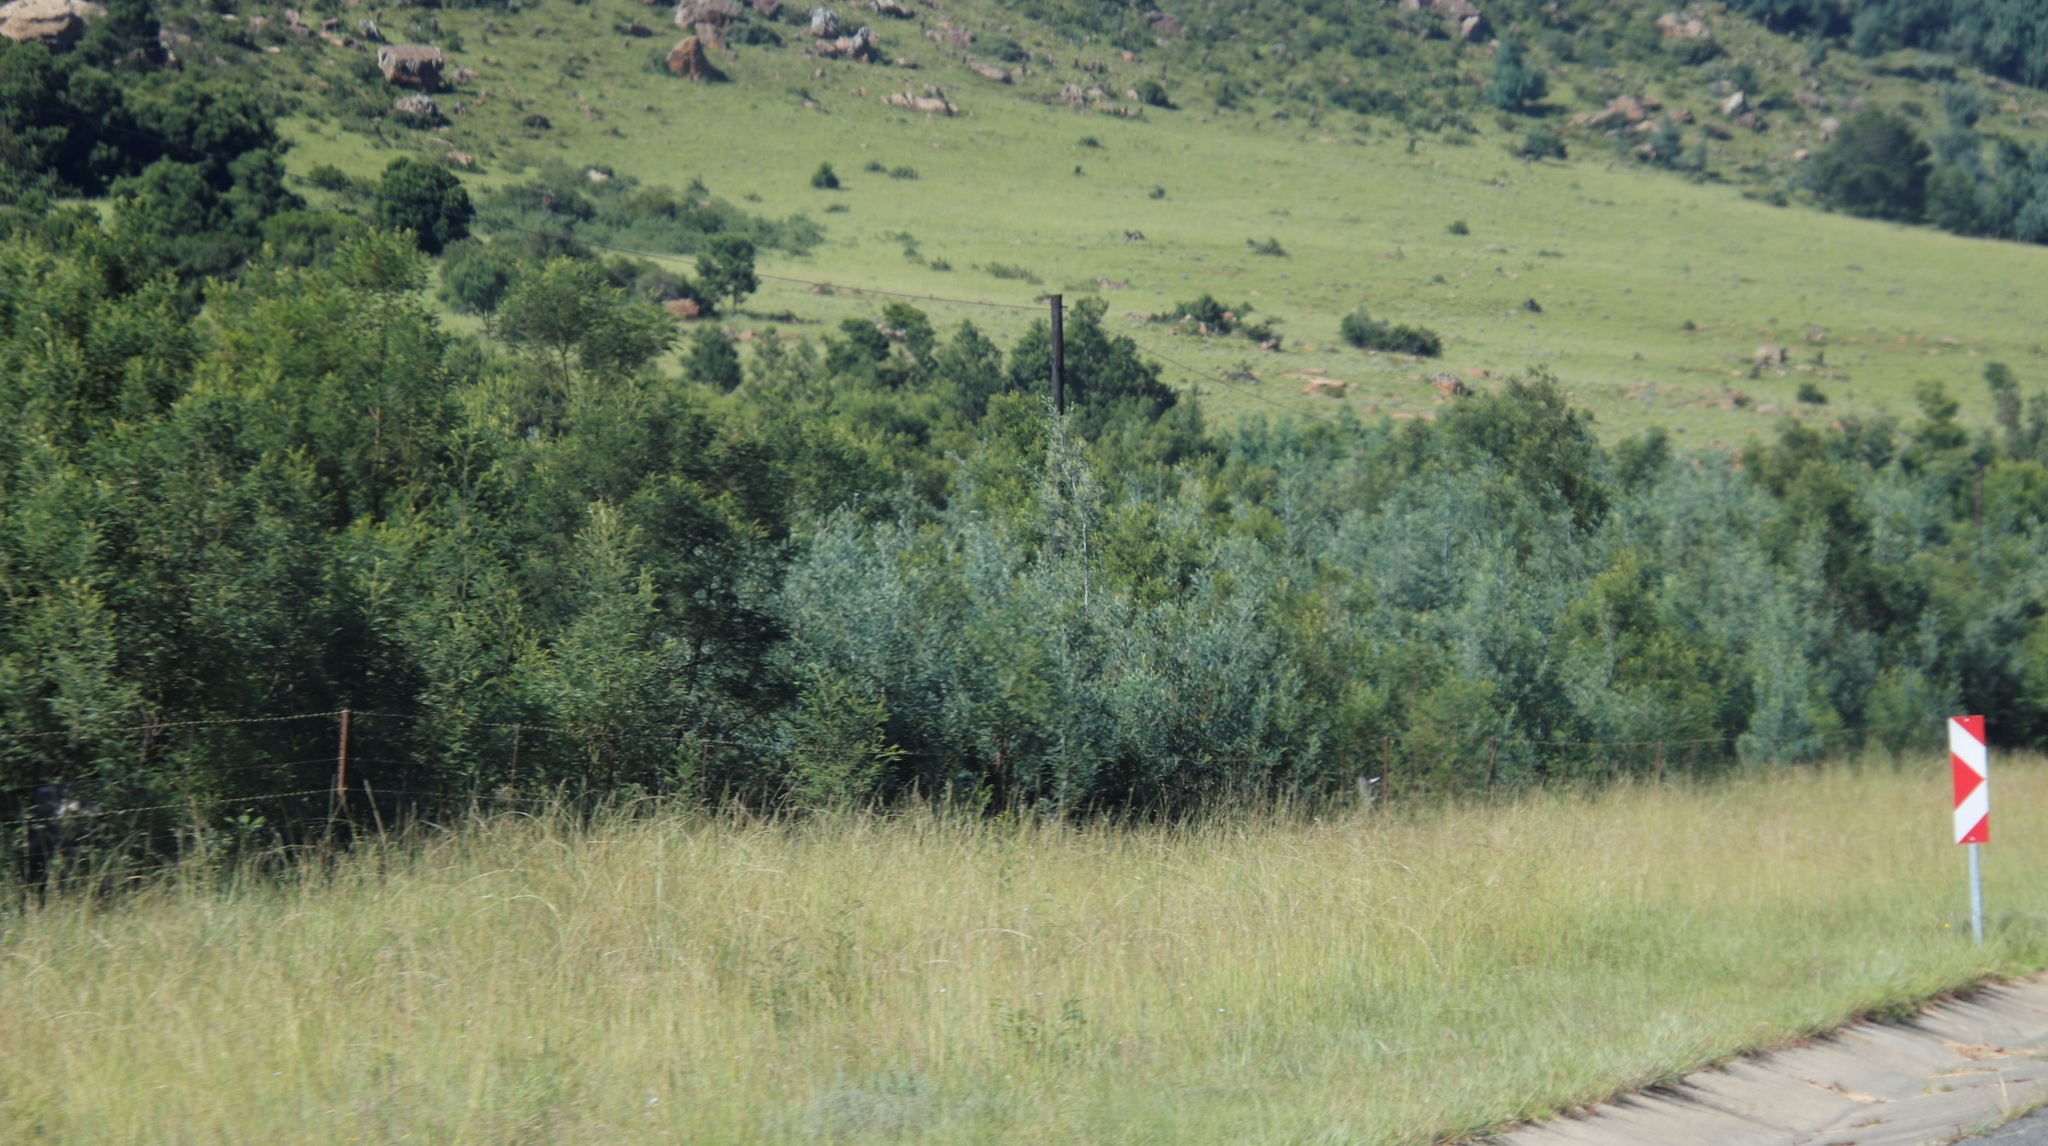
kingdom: Plantae
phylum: Tracheophyta
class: Magnoliopsida
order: Fabales
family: Fabaceae
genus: Acacia
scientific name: Acacia dealbata
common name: Silver wattle
